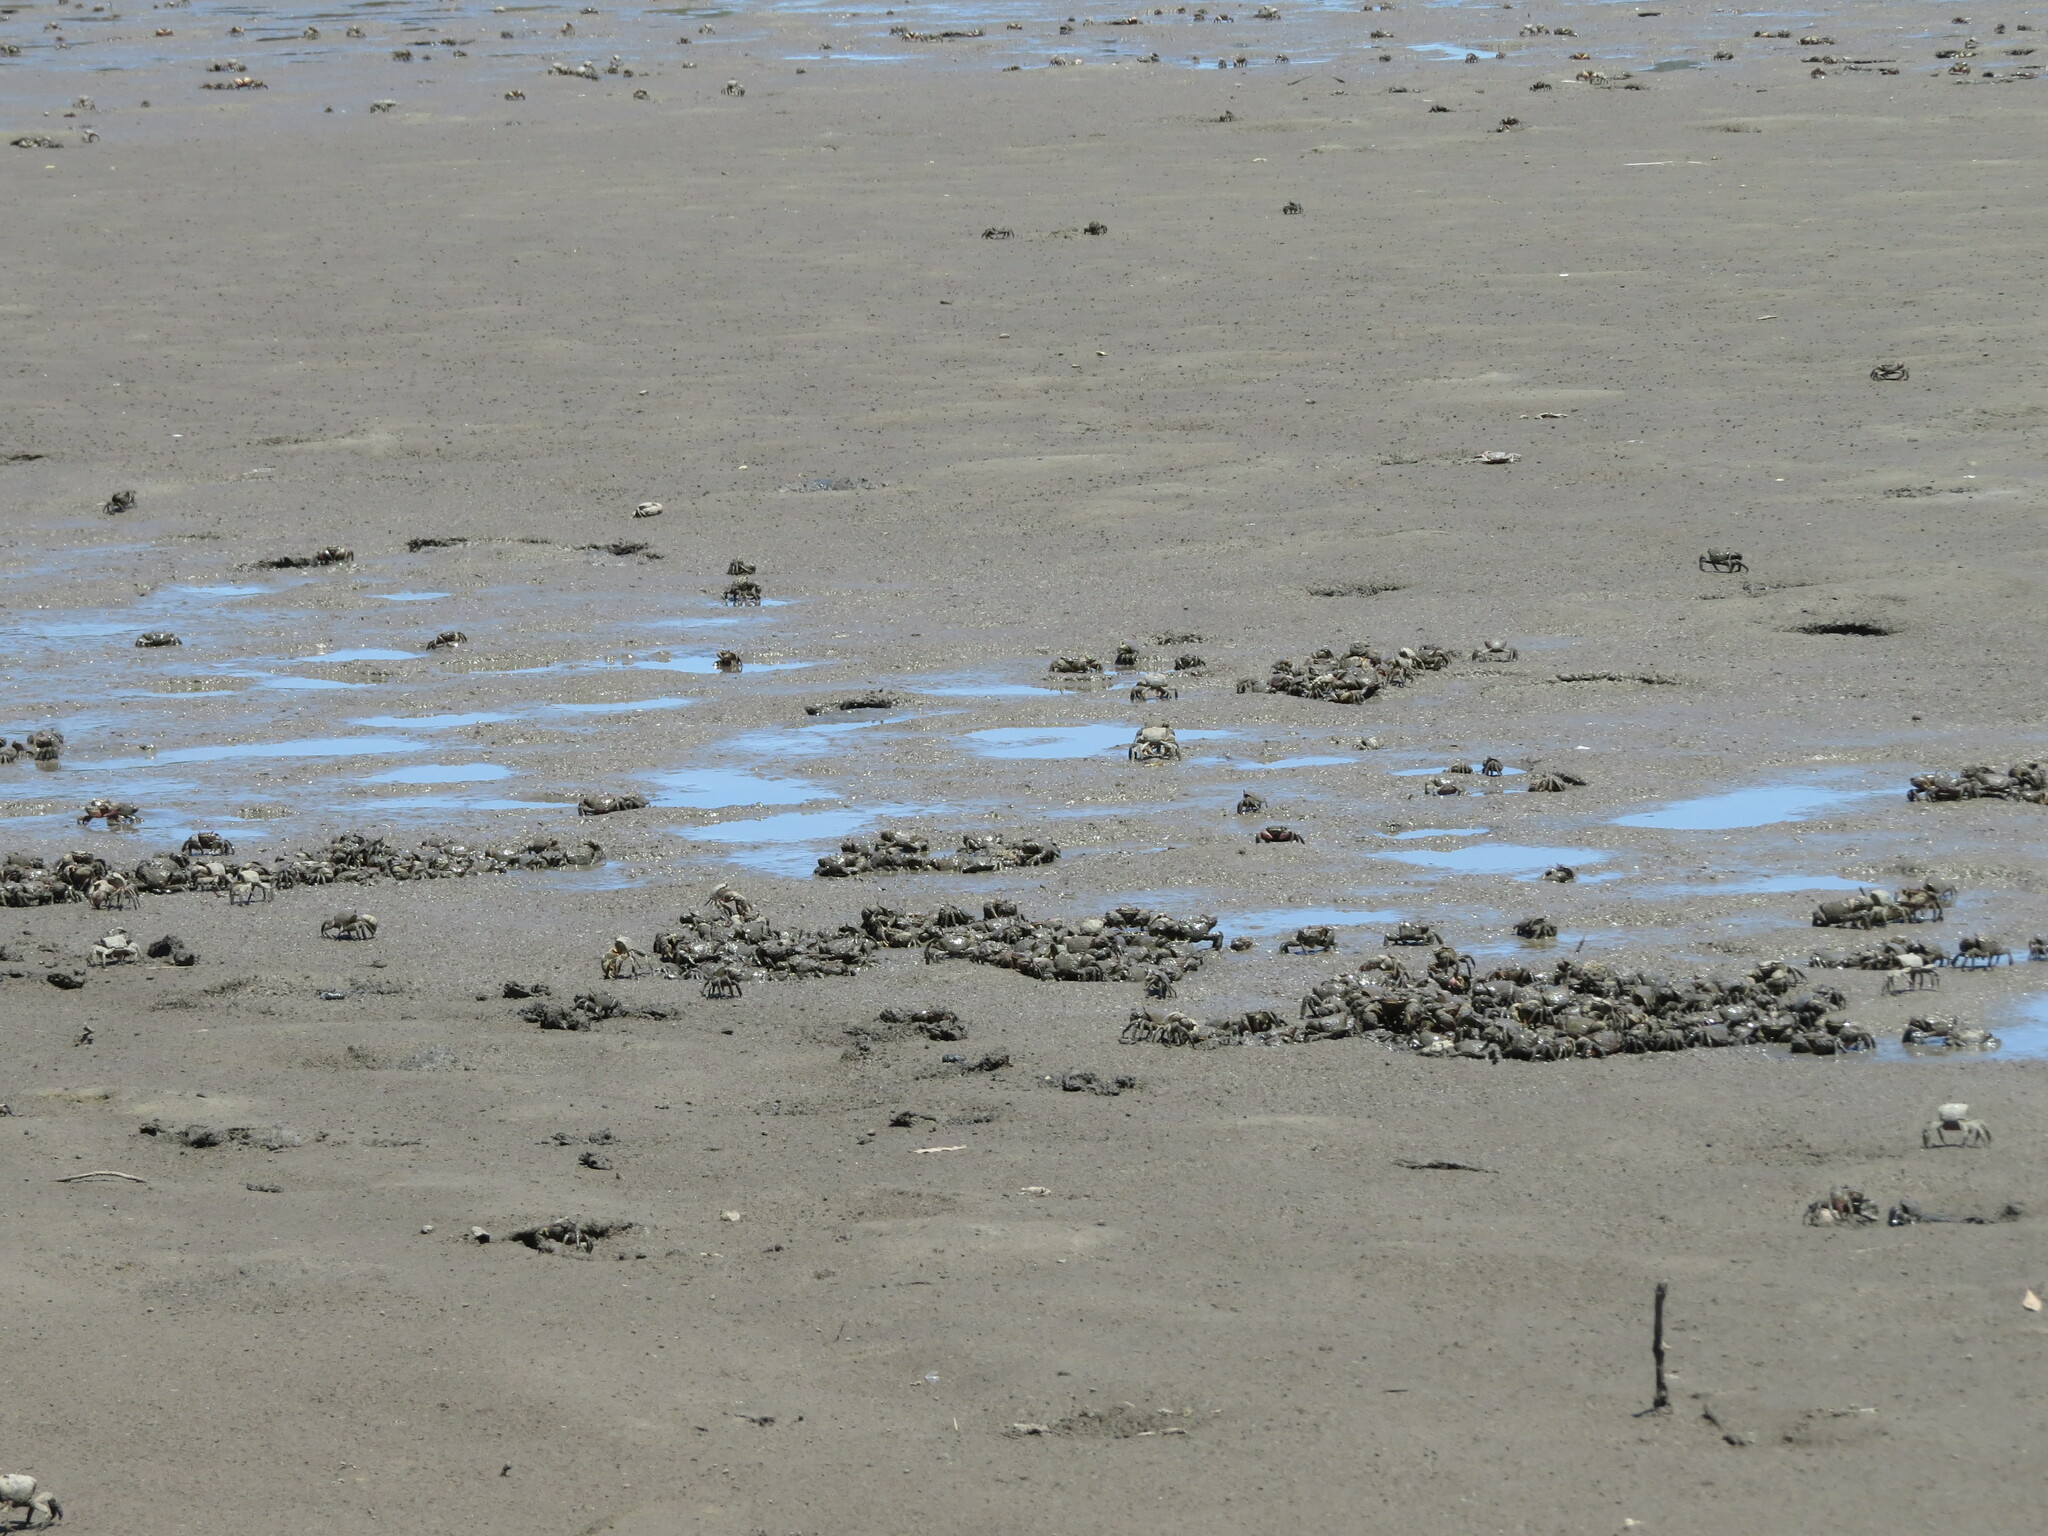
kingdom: Animalia
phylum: Arthropoda
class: Malacostraca
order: Decapoda
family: Varunidae
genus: Neohelice
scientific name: Neohelice granulata
